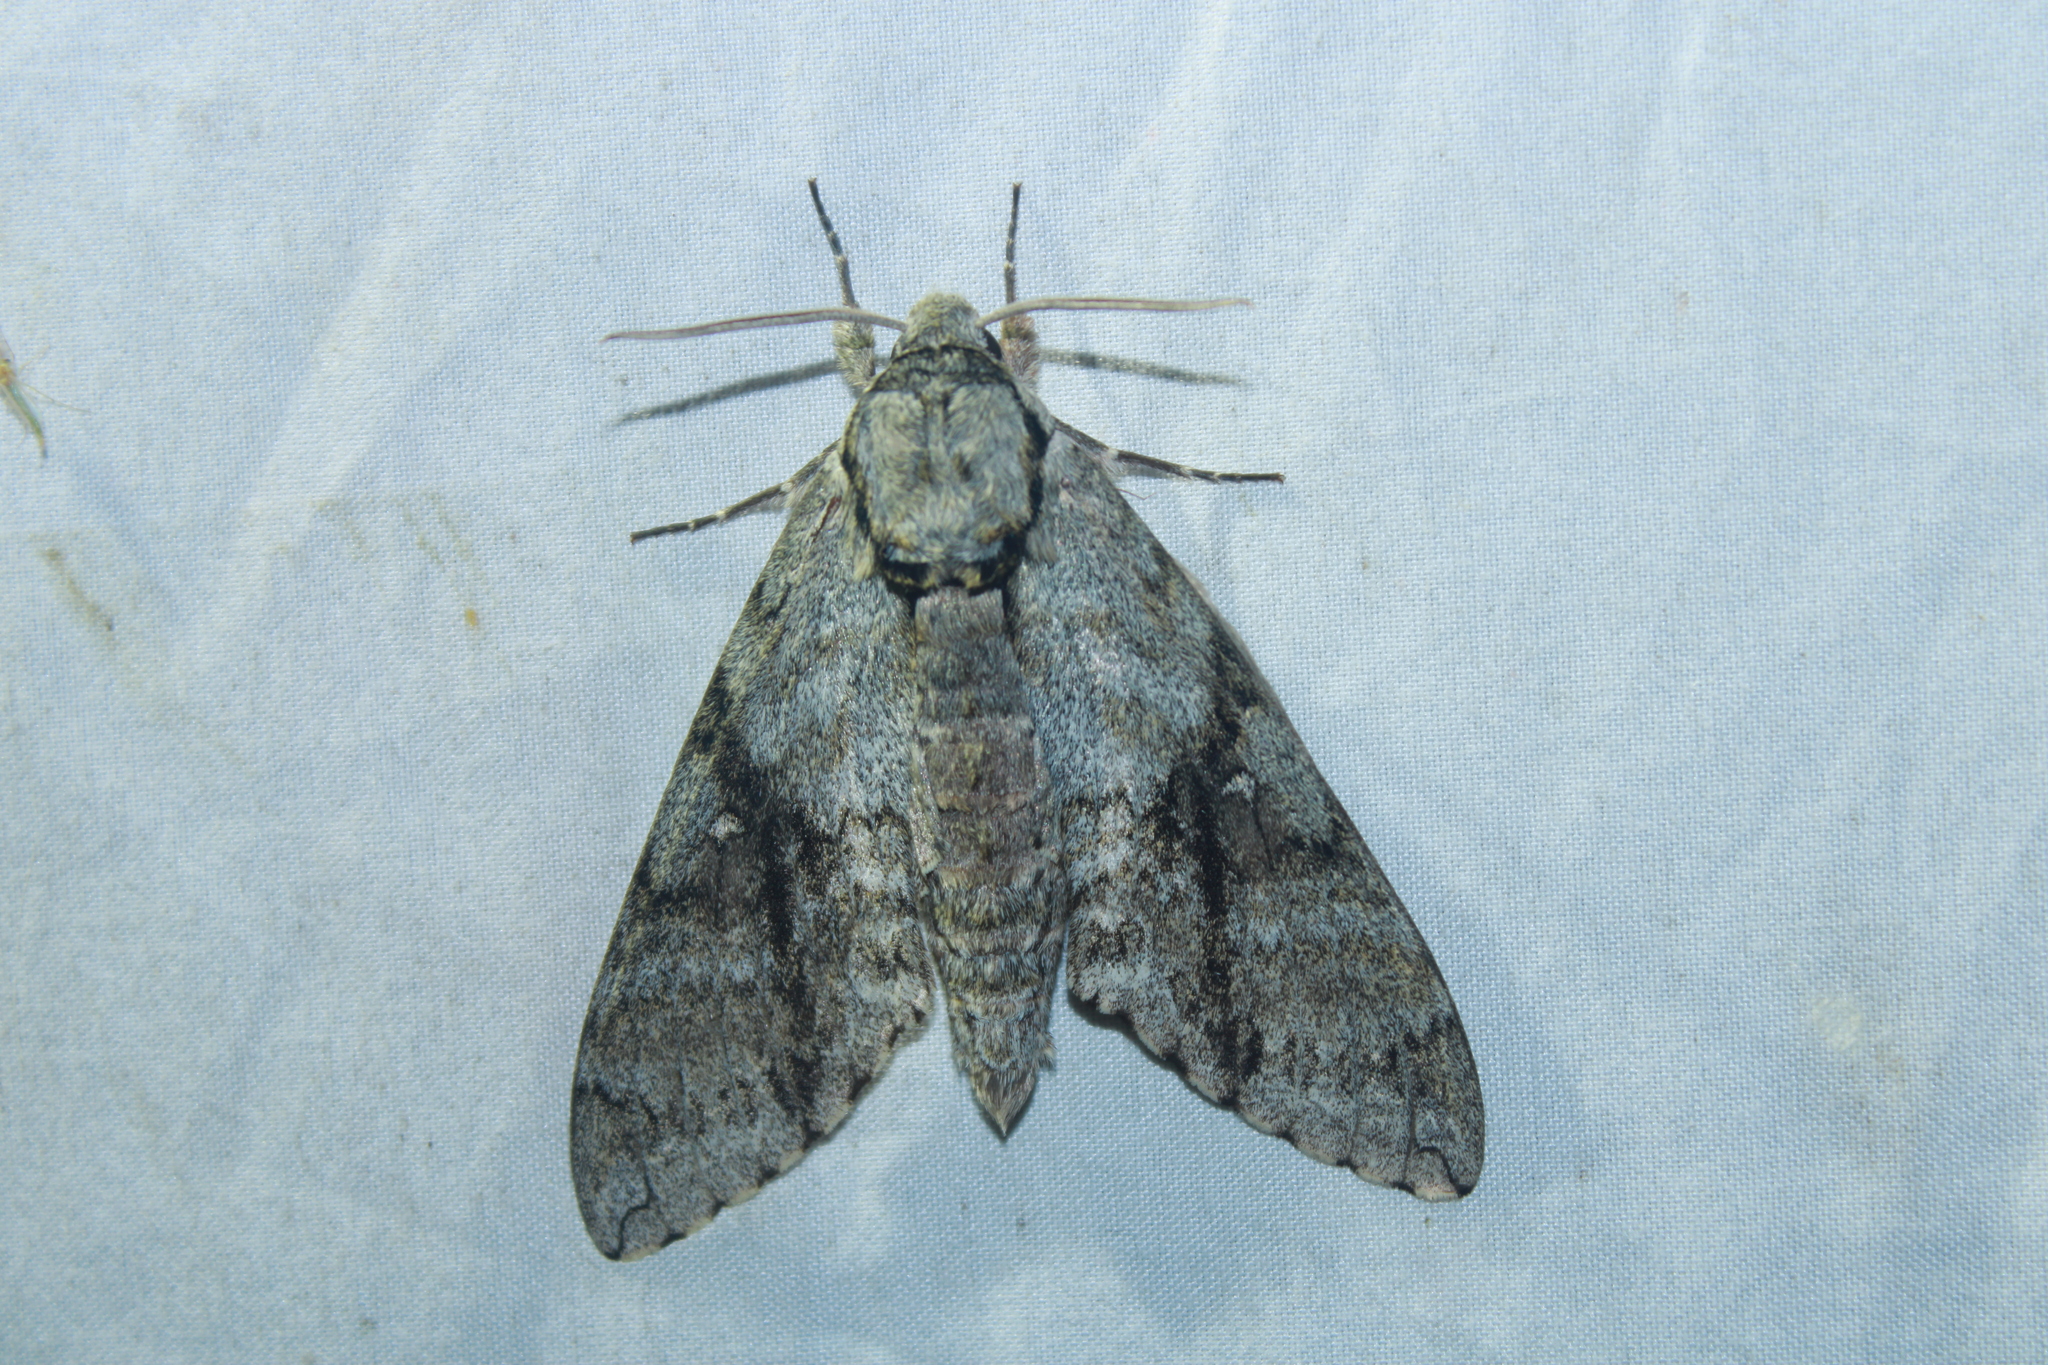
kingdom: Animalia
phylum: Arthropoda
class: Insecta
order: Lepidoptera
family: Sphingidae
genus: Manduca
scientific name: Manduca jasminearum
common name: Ash sphinx
